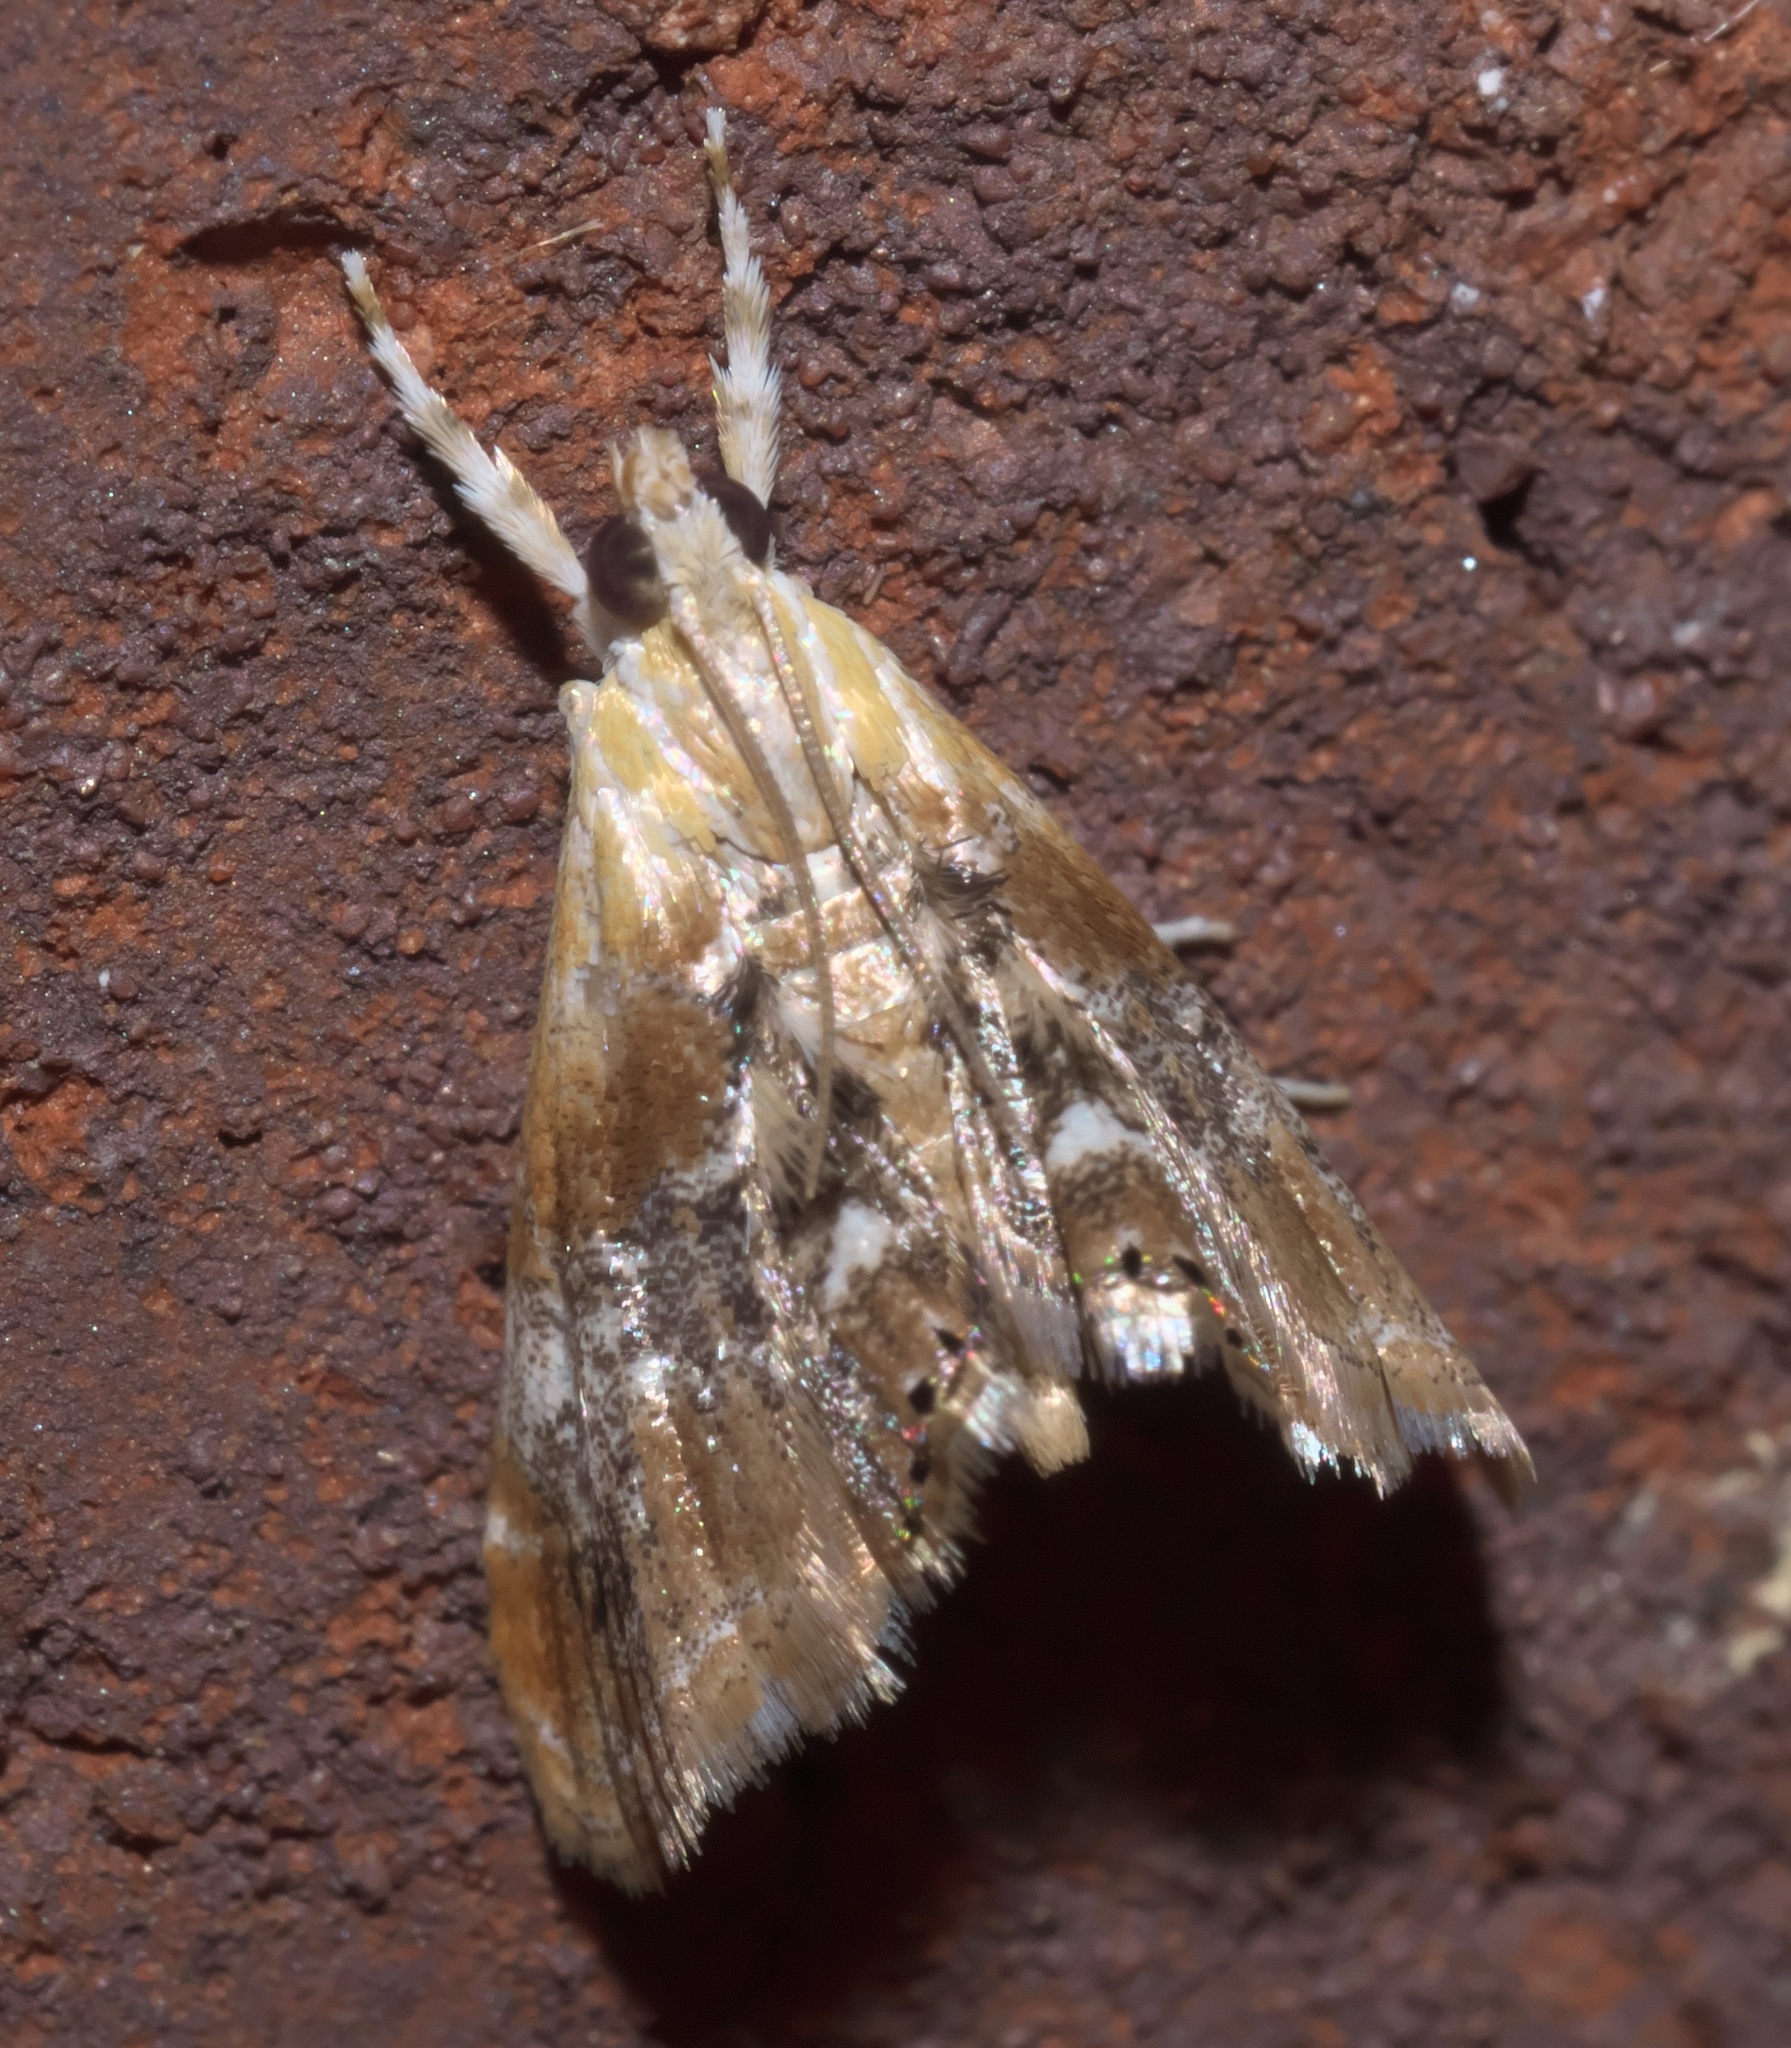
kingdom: Animalia
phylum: Arthropoda
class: Insecta
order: Lepidoptera
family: Crambidae
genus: Dicymolomia
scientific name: Dicymolomia julianalis
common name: Julia's dicymolomia moth
